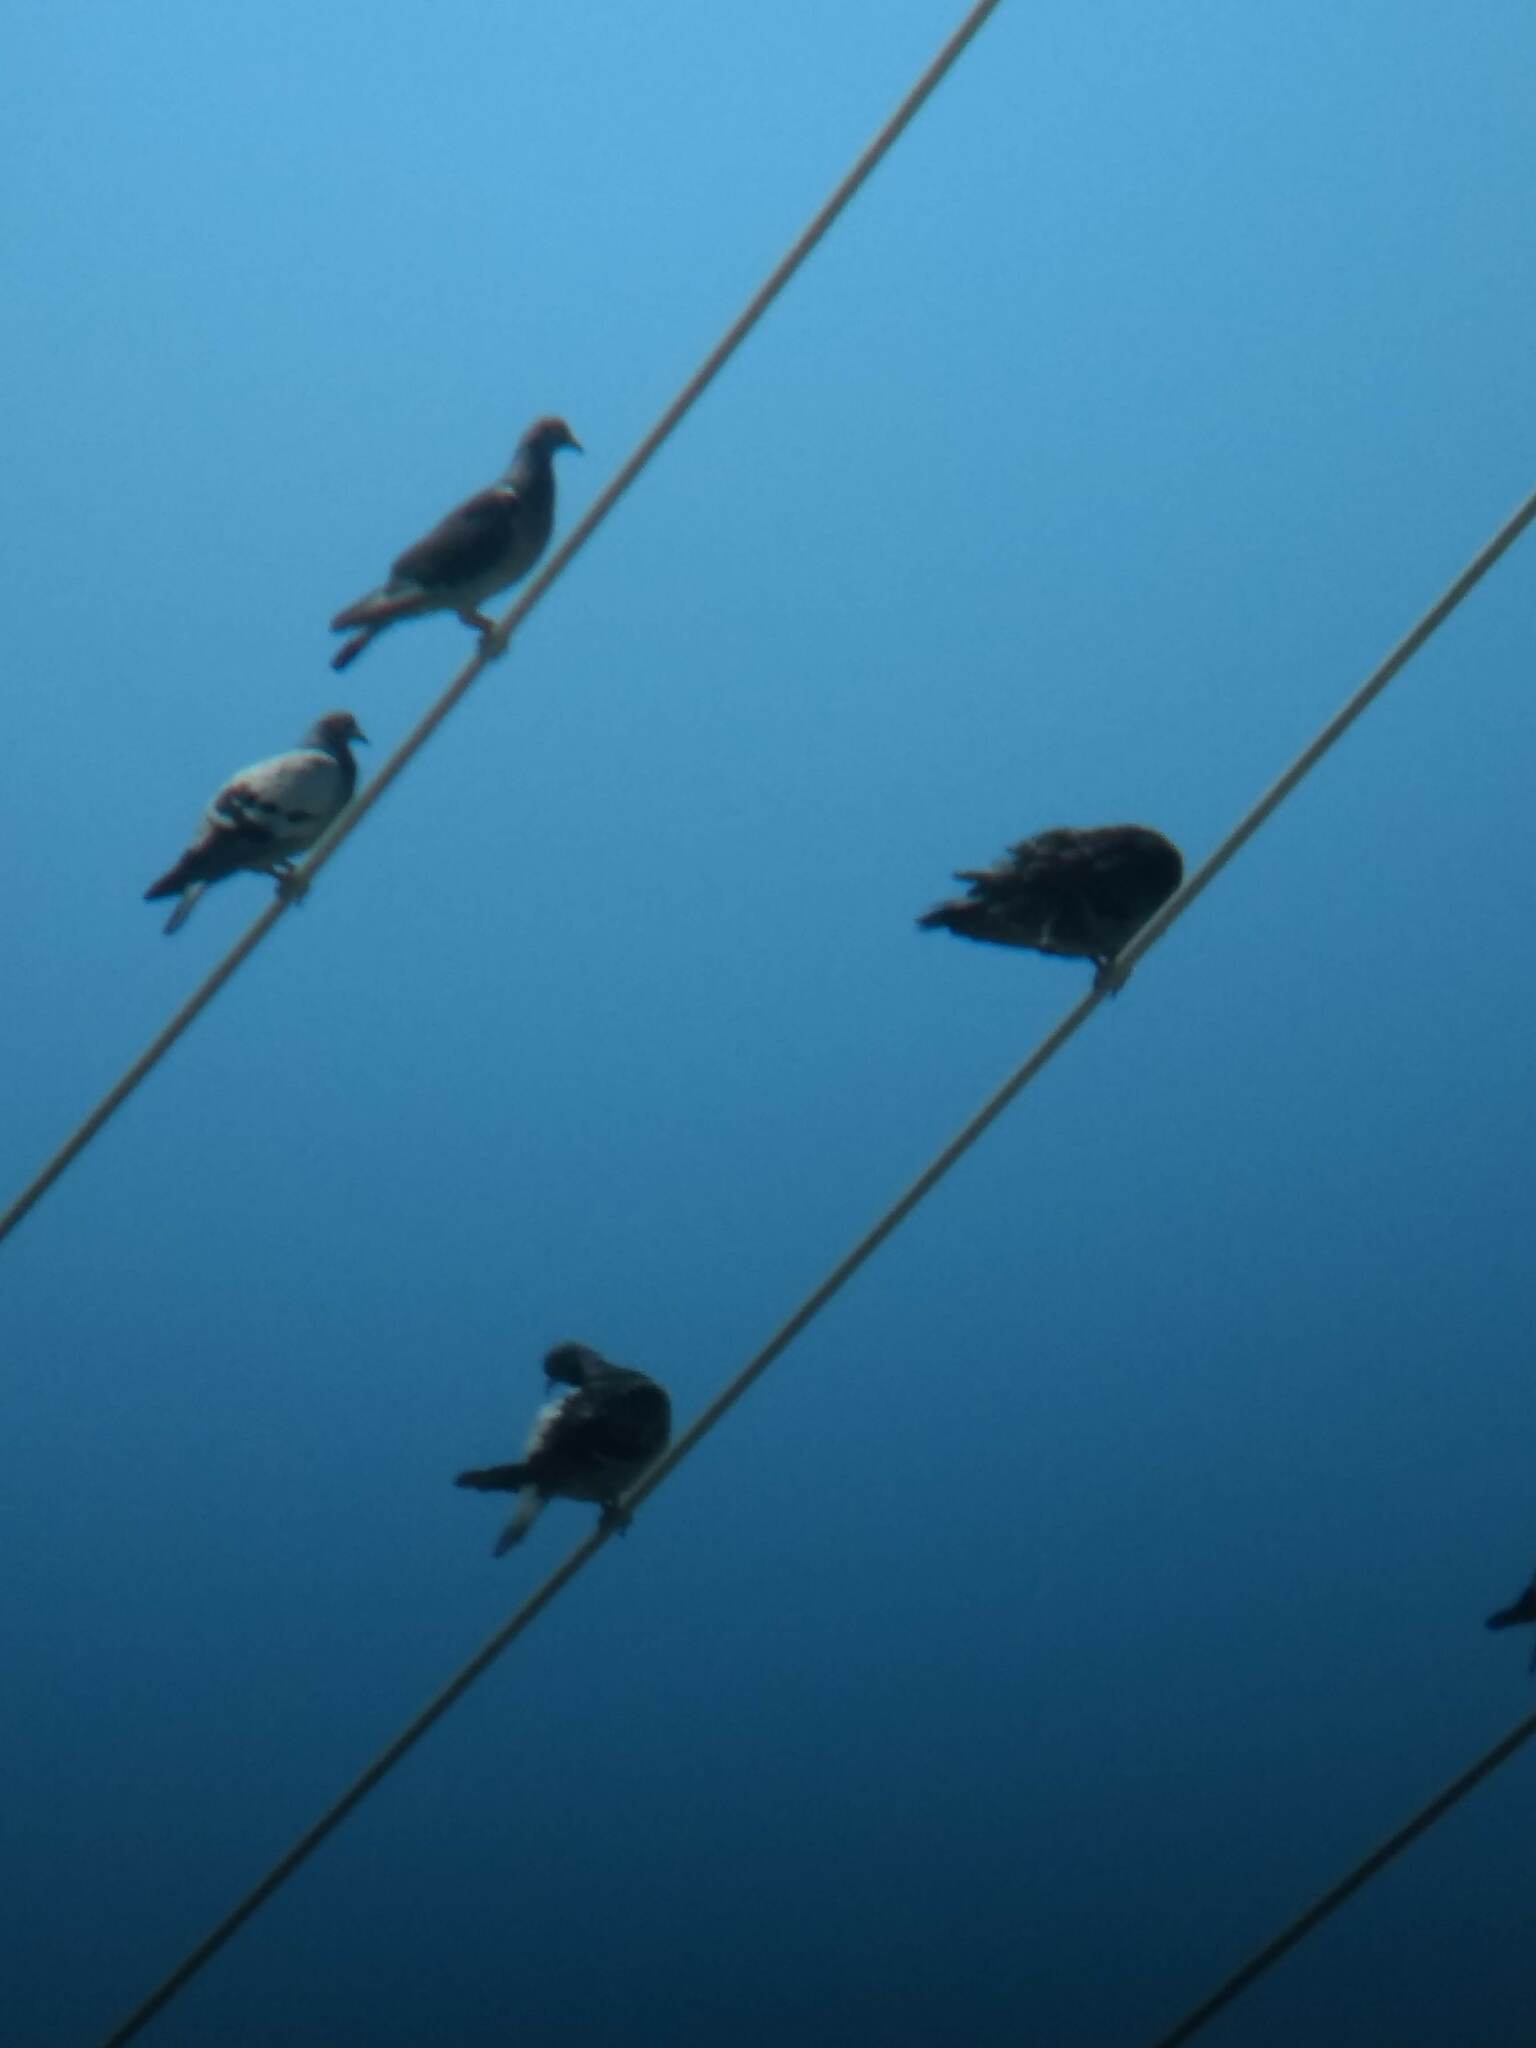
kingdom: Animalia
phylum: Chordata
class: Aves
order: Columbiformes
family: Columbidae
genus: Columba
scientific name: Columba livia
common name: Rock pigeon
